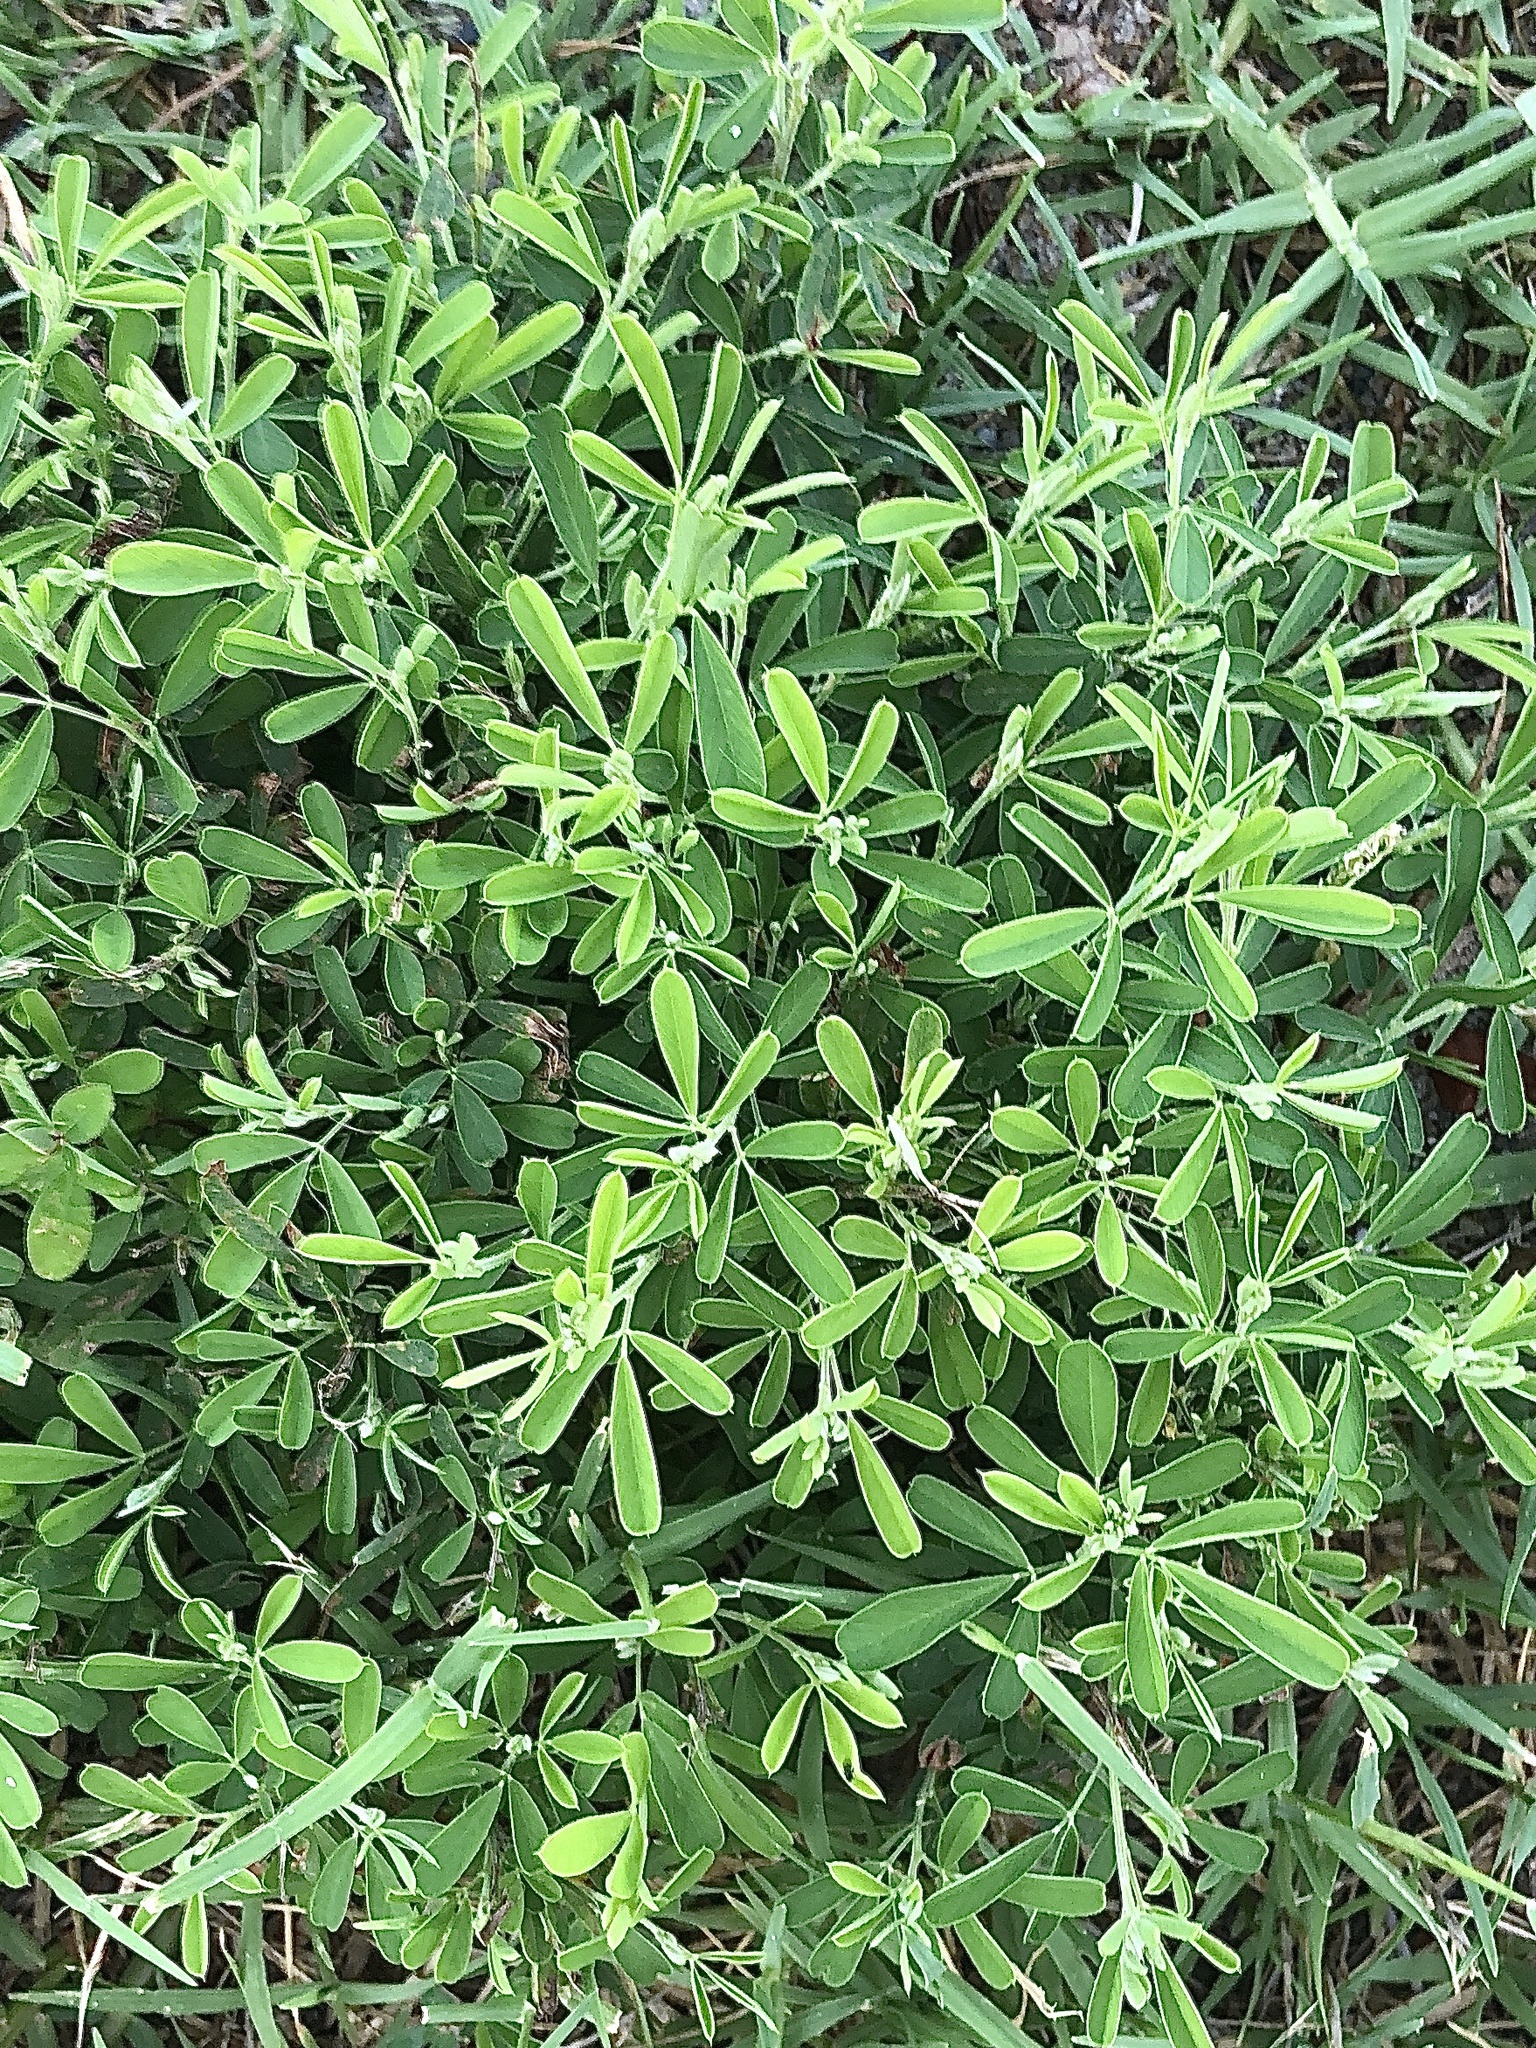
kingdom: Plantae
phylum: Tracheophyta
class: Magnoliopsida
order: Fabales
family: Fabaceae
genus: Lespedeza
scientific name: Lespedeza cuneata
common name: Chinese bush-clover
